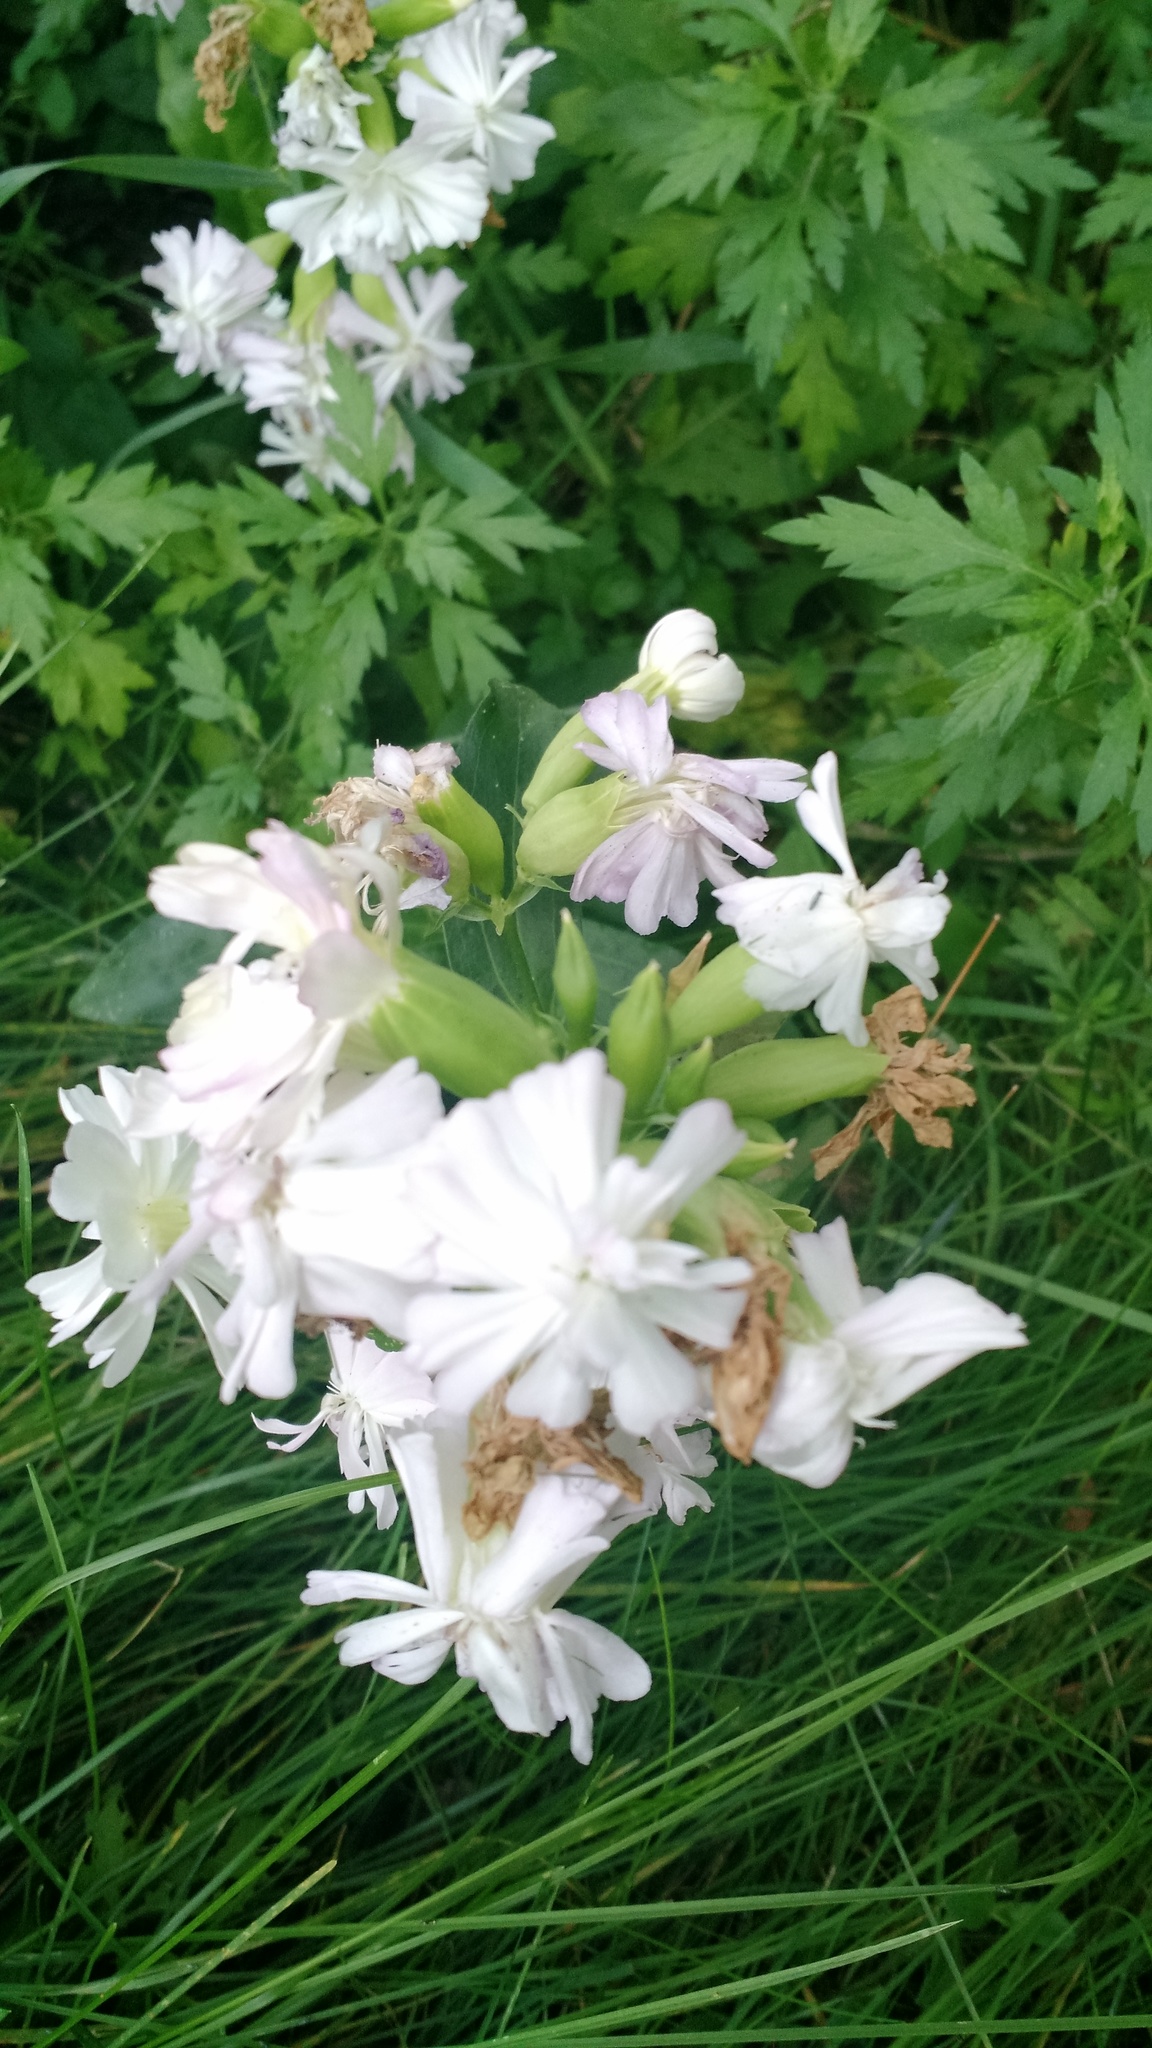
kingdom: Plantae
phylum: Tracheophyta
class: Magnoliopsida
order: Caryophyllales
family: Caryophyllaceae
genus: Saponaria
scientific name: Saponaria officinalis
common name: Soapwort
